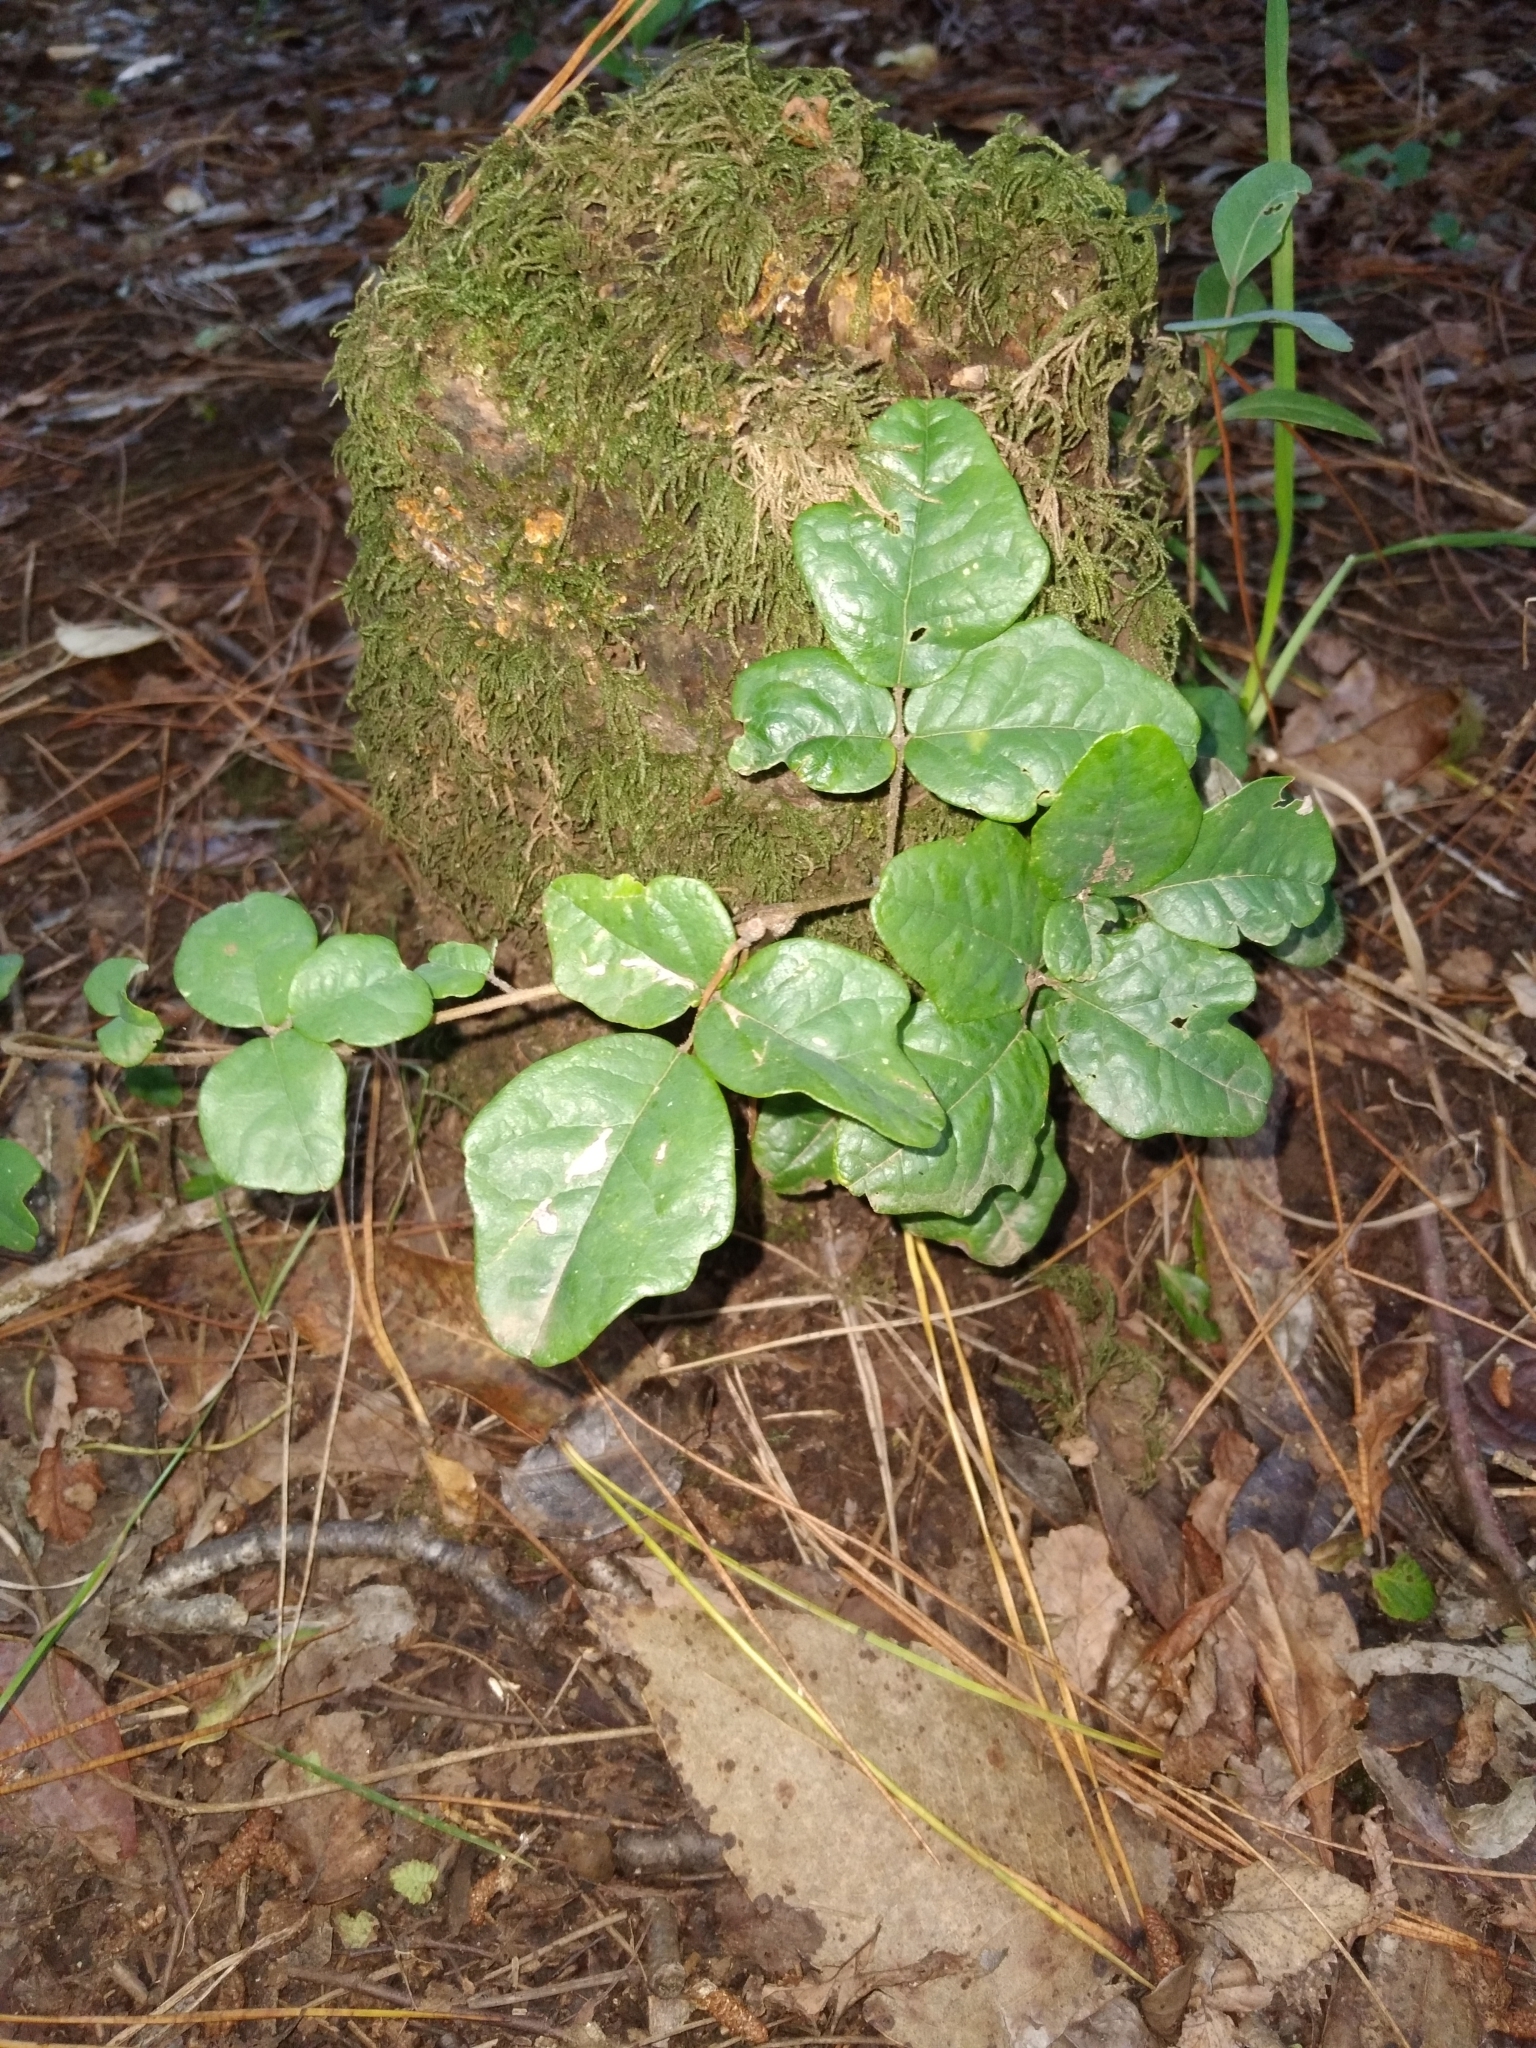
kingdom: Plantae
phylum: Tracheophyta
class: Magnoliopsida
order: Ranunculales
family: Lardizabalaceae
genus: Boquila
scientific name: Boquila trifoliolata
